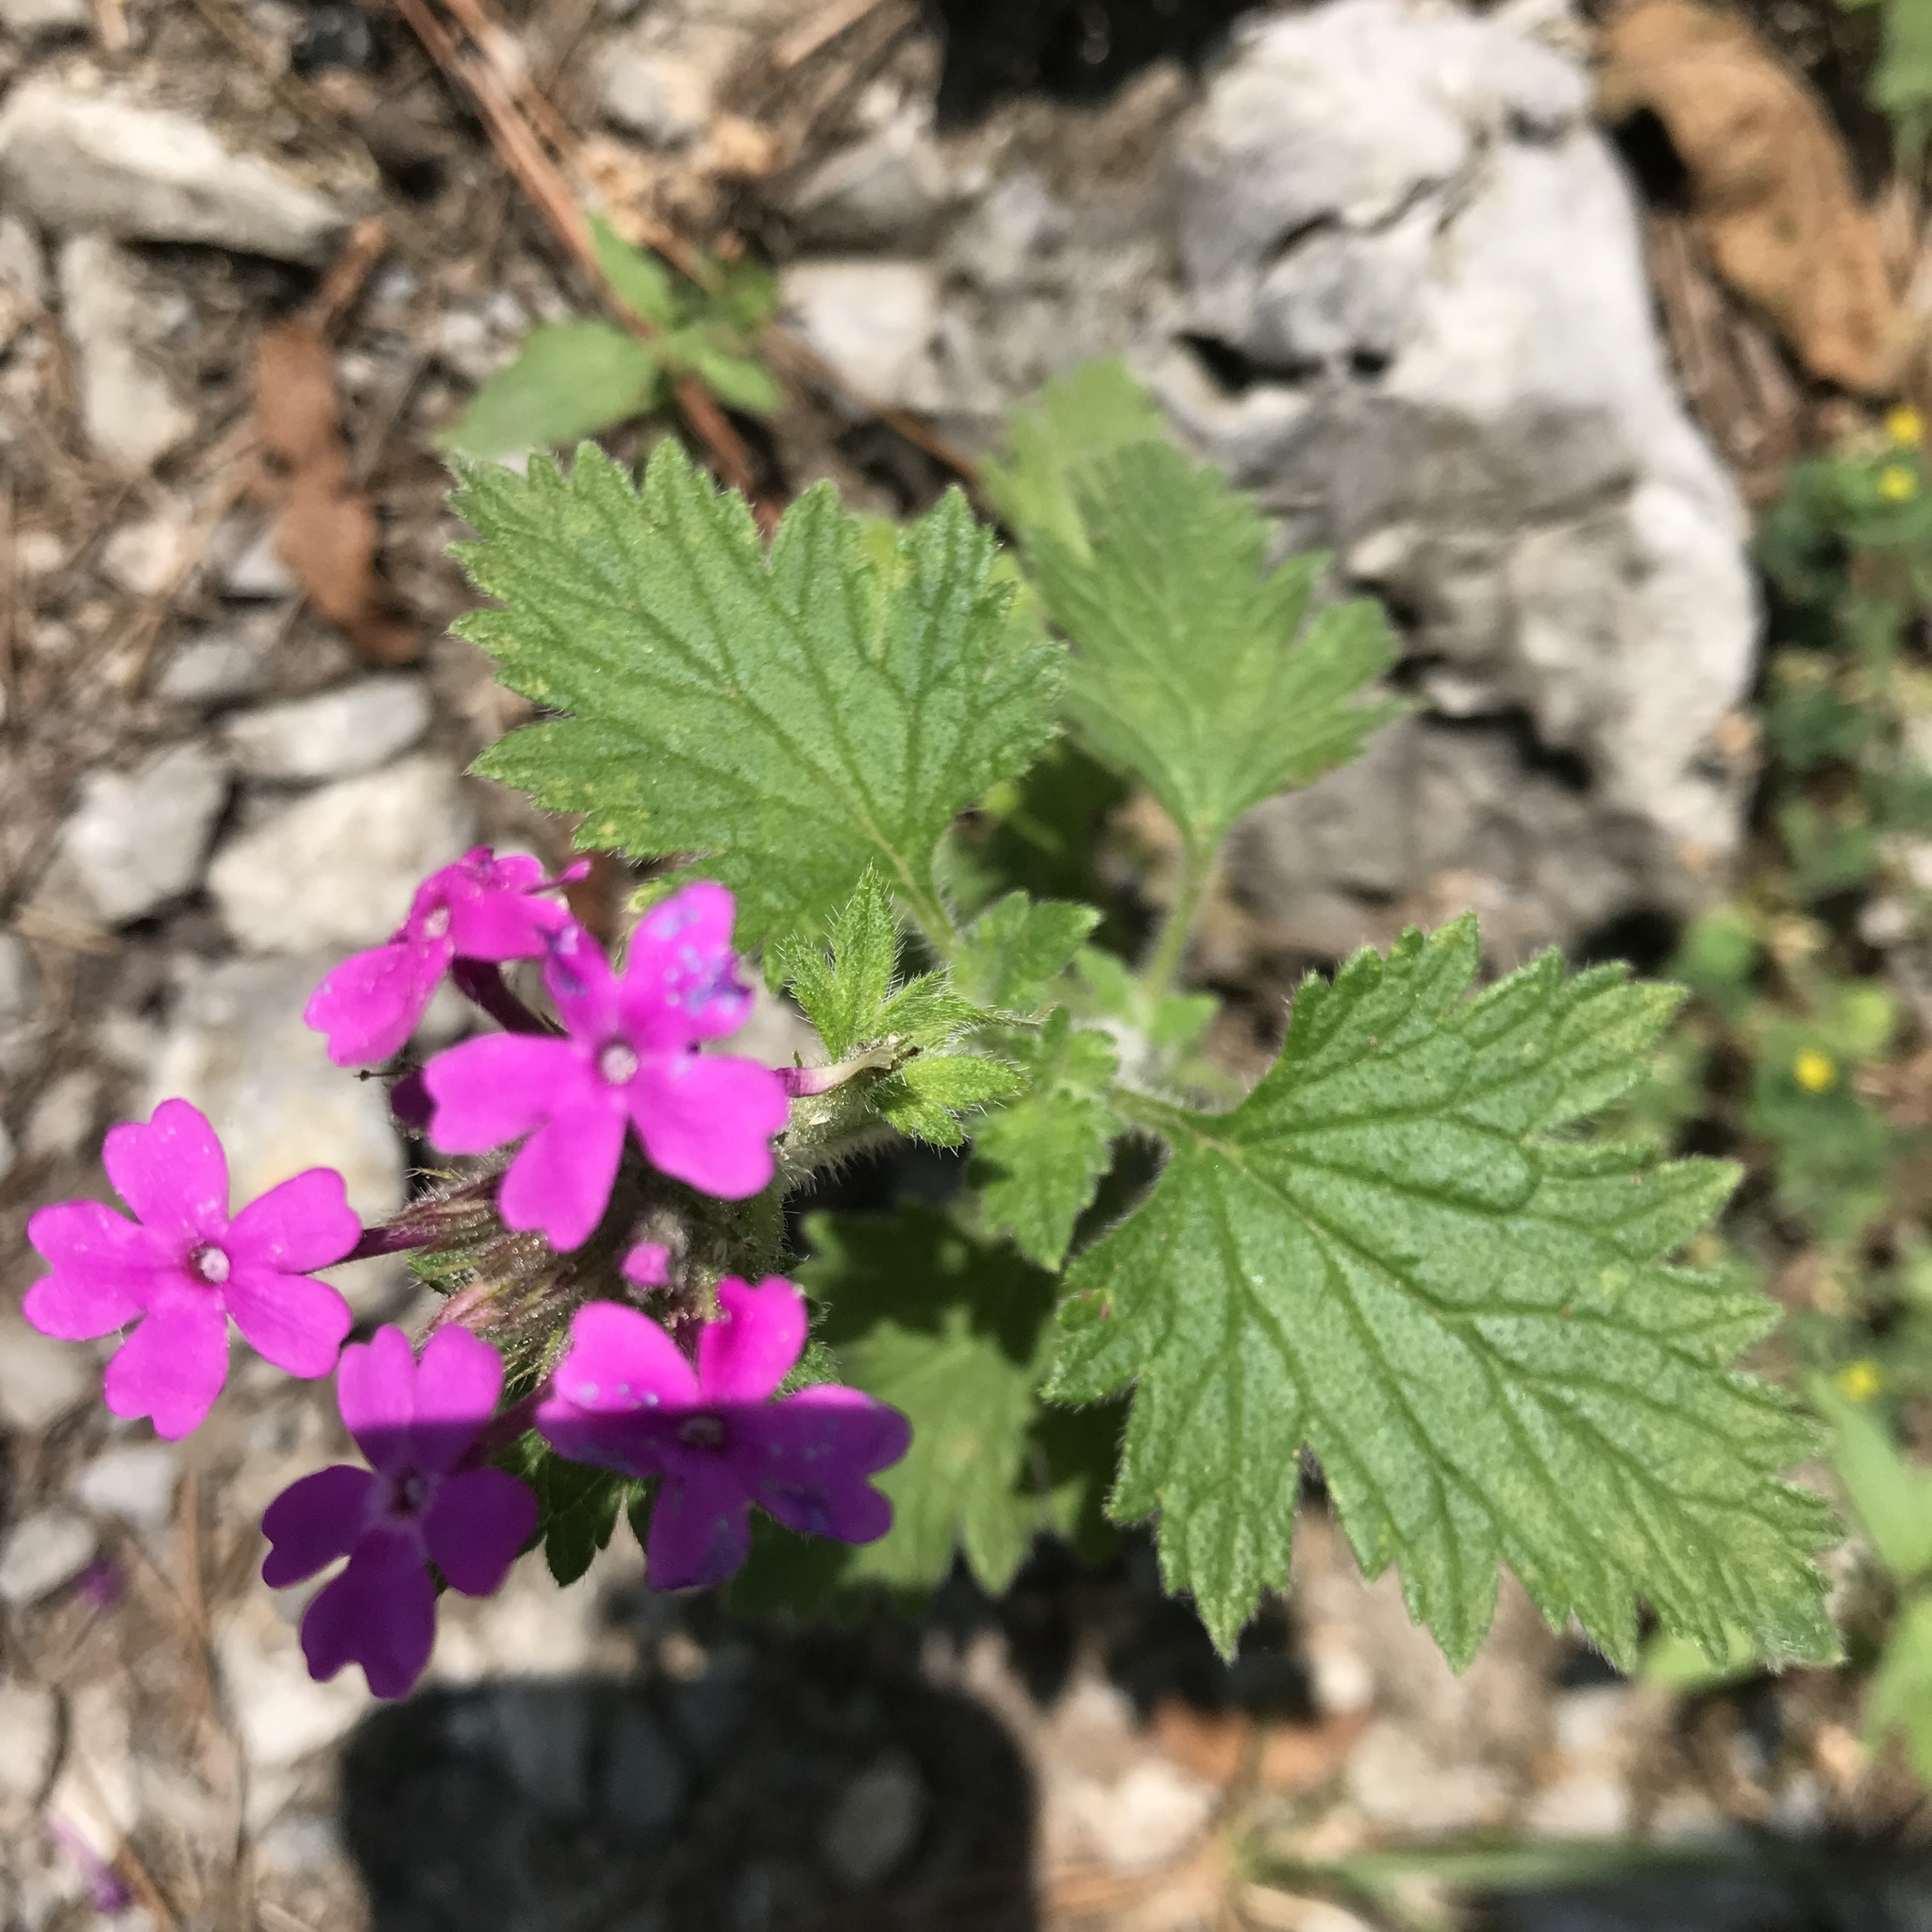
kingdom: Plantae
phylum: Tracheophyta
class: Magnoliopsida
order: Lamiales
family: Verbenaceae
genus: Verbena
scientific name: Verbena canadensis
